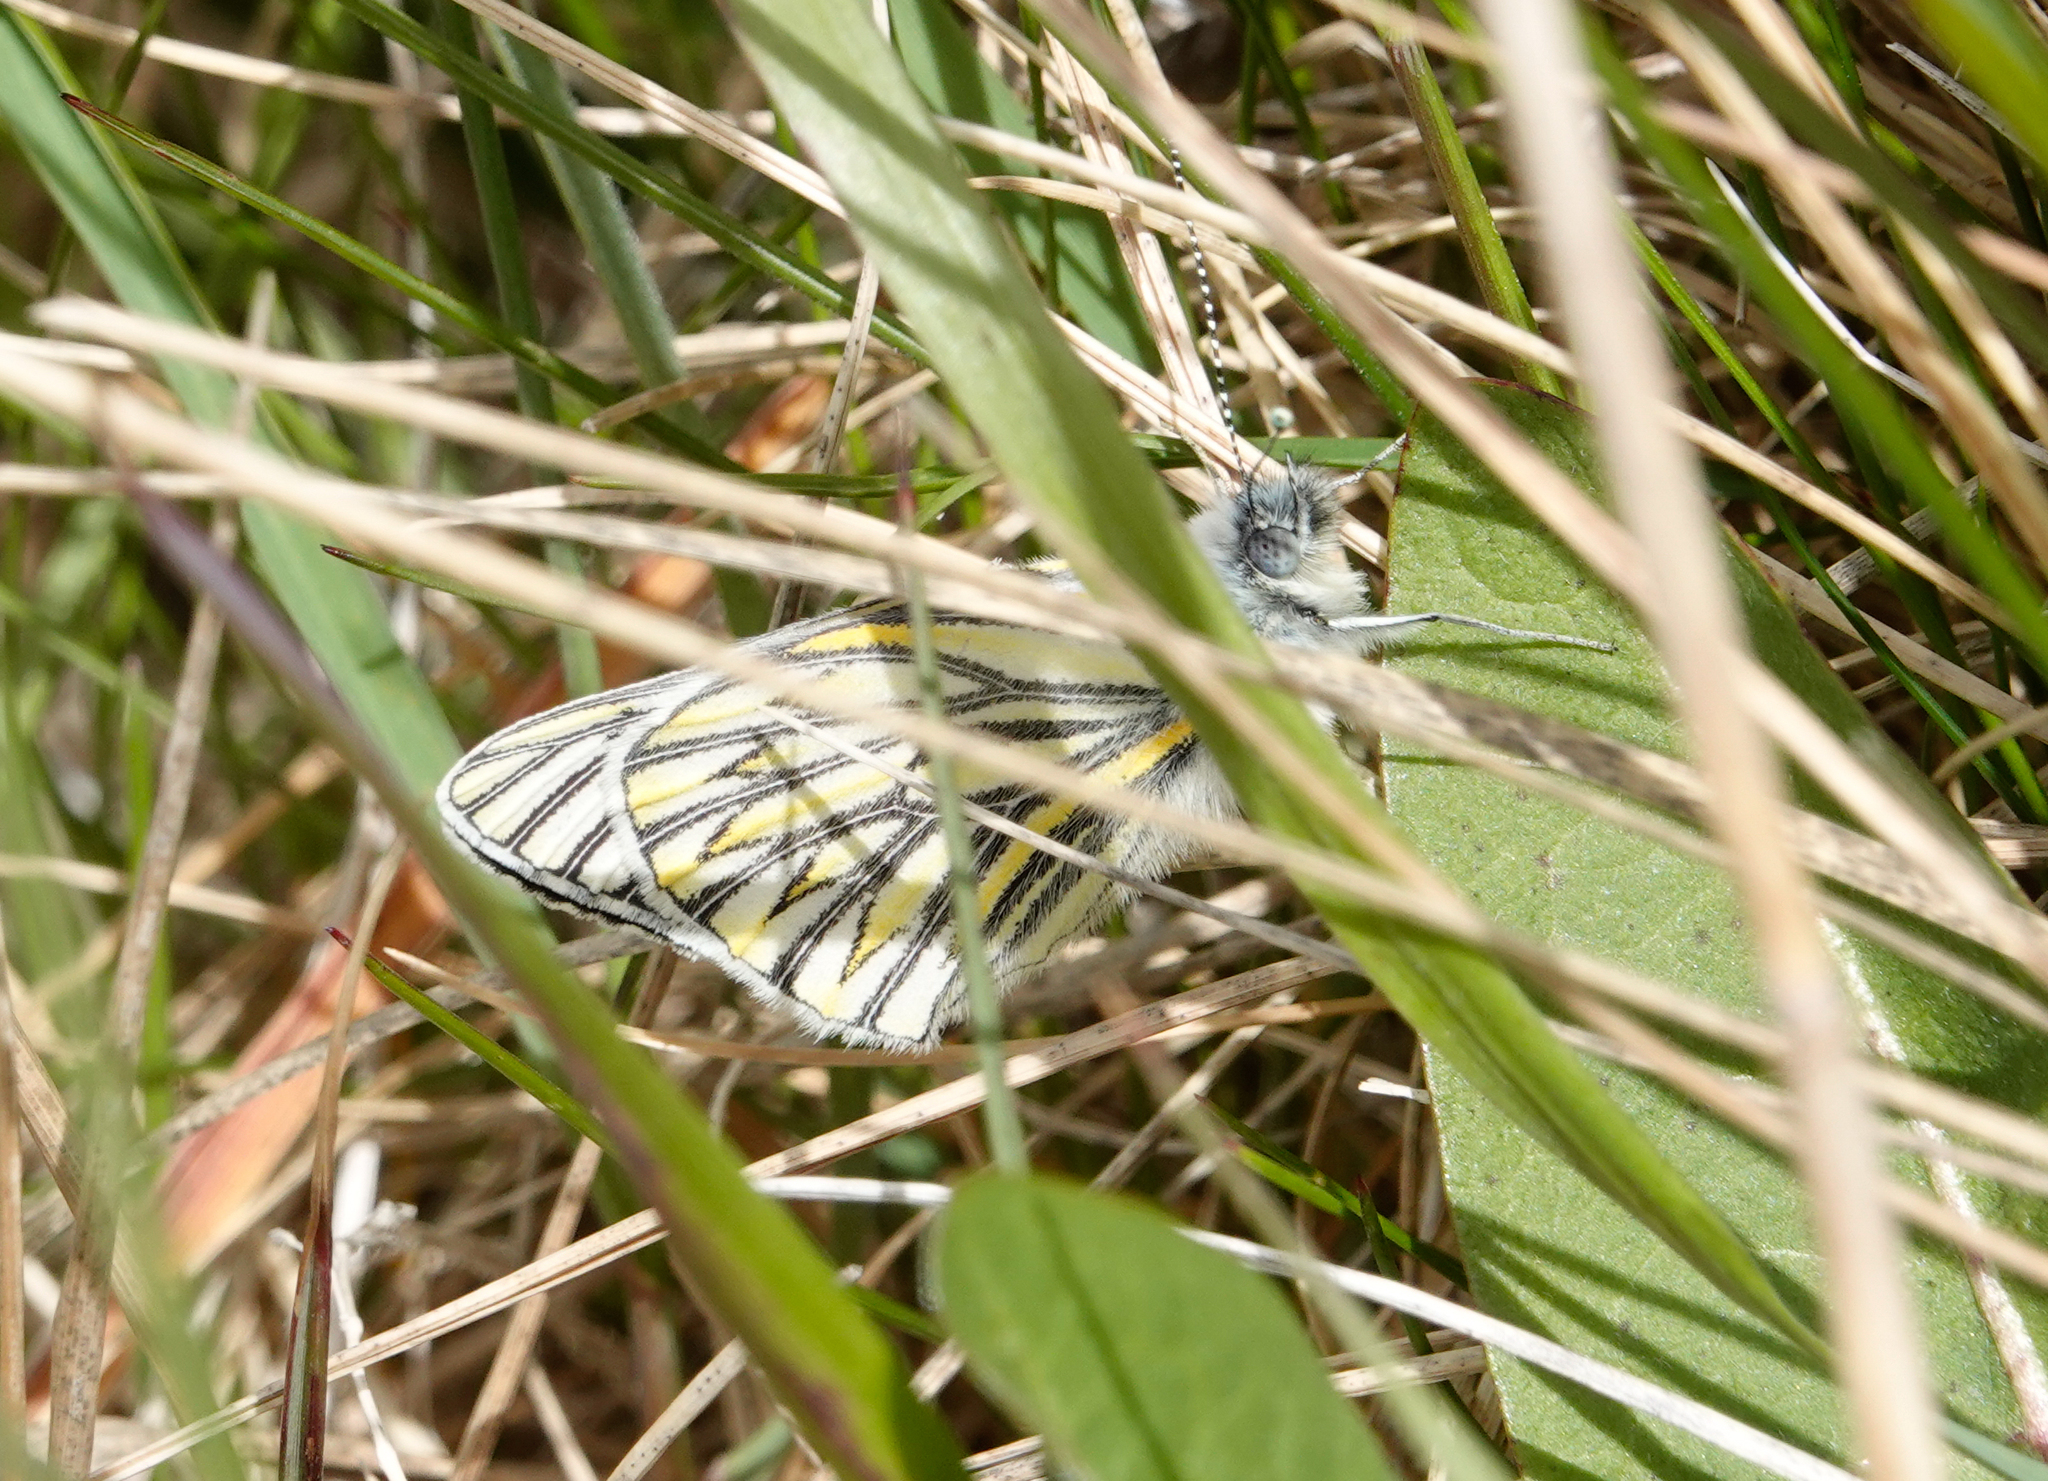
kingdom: Animalia
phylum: Arthropoda
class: Insecta
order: Lepidoptera
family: Pieridae
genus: Tatochila
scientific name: Tatochila theodice
